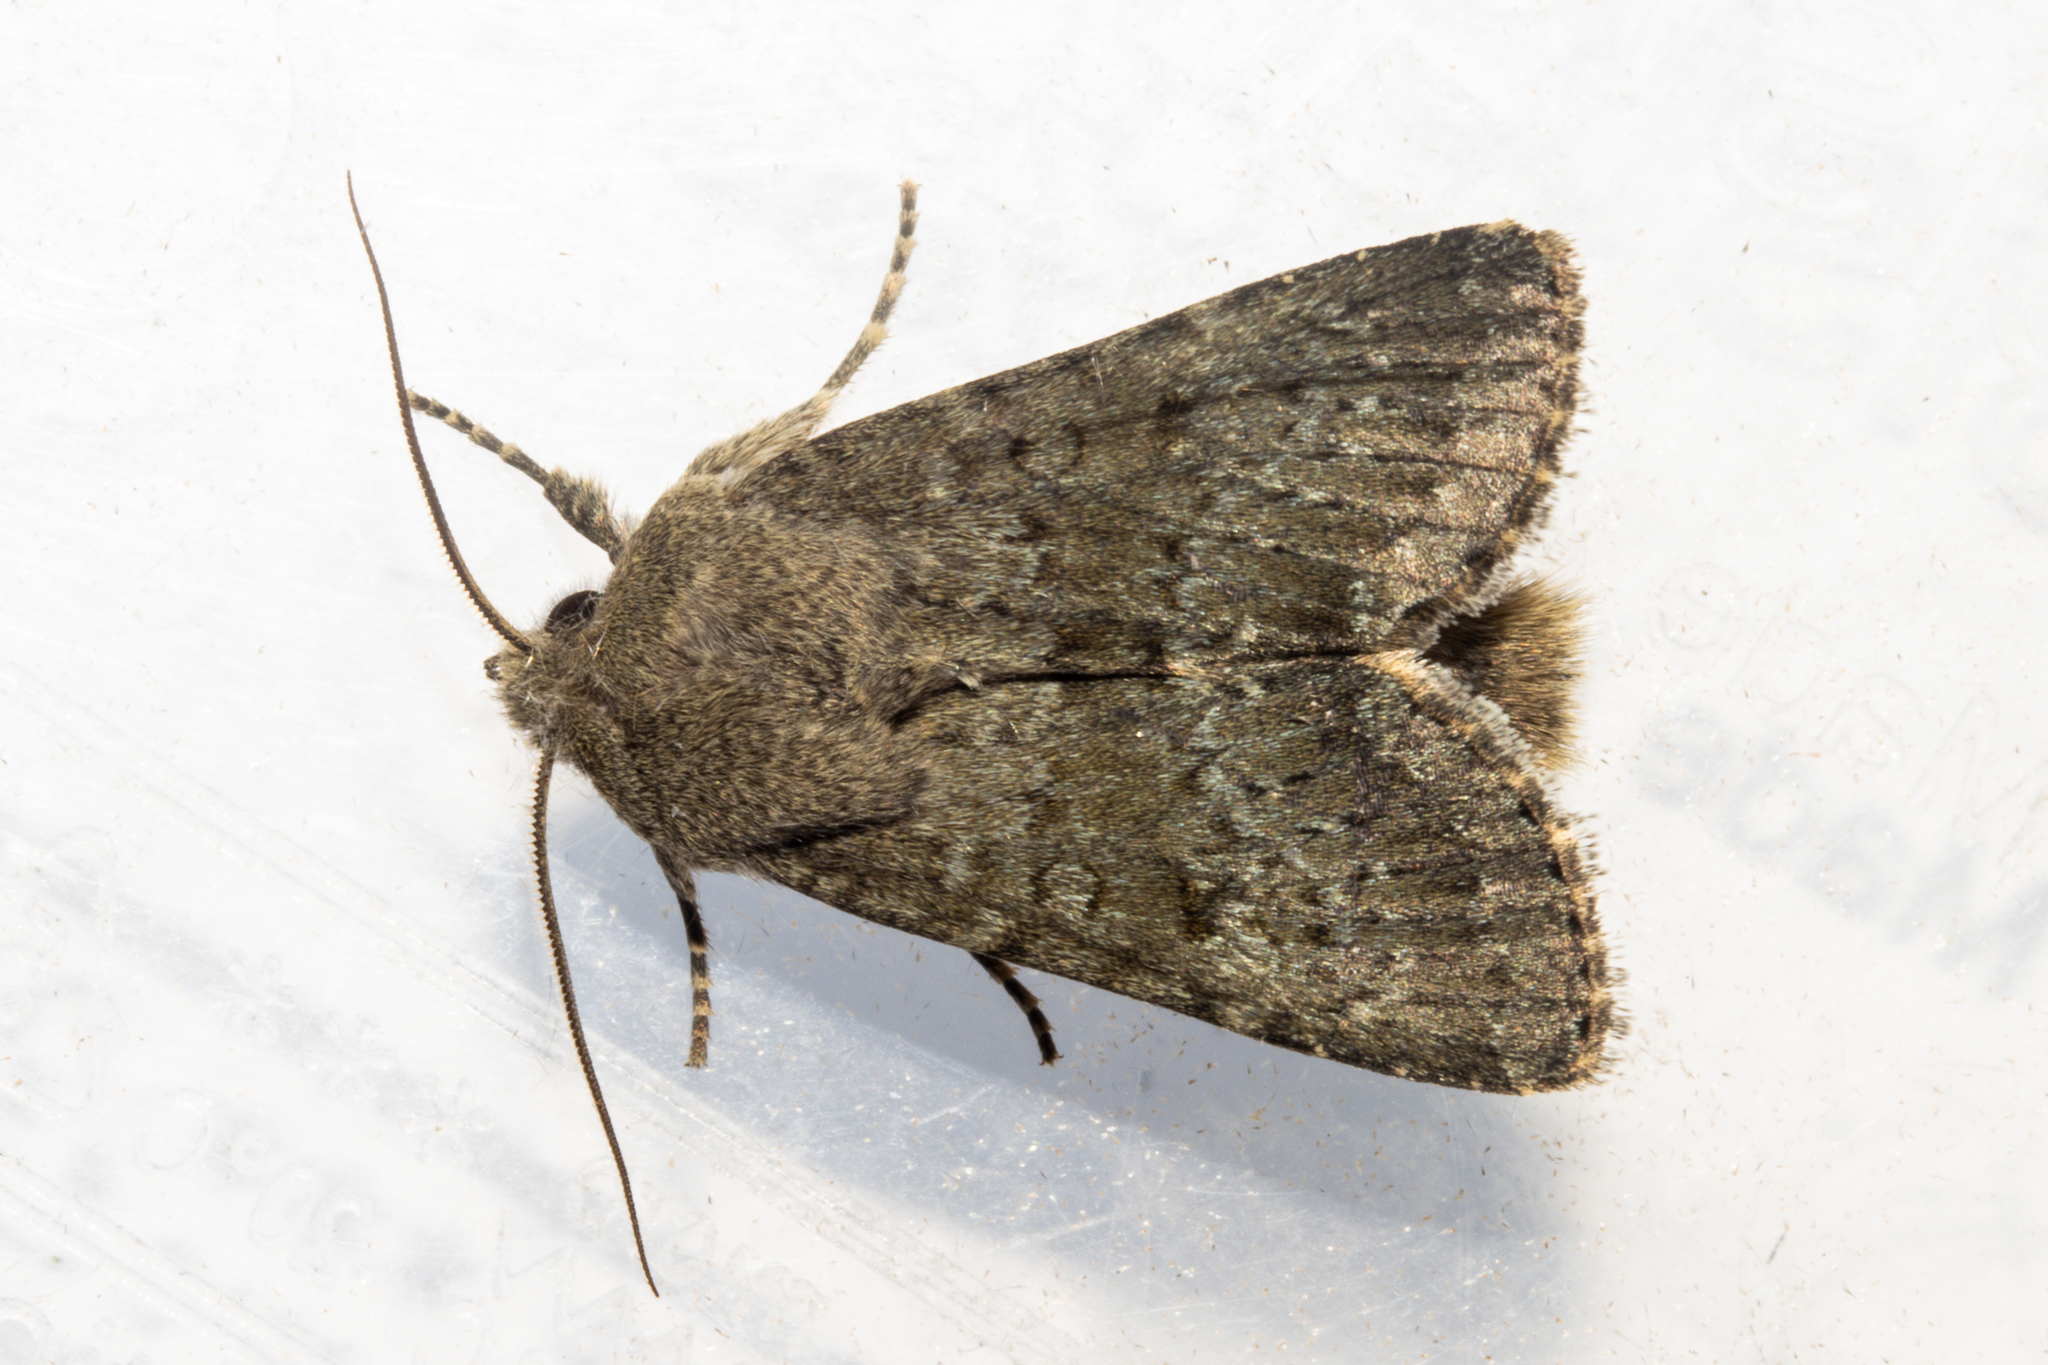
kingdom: Animalia
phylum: Arthropoda
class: Insecta
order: Lepidoptera
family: Noctuidae
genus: Ichneutica
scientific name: Ichneutica moderata
